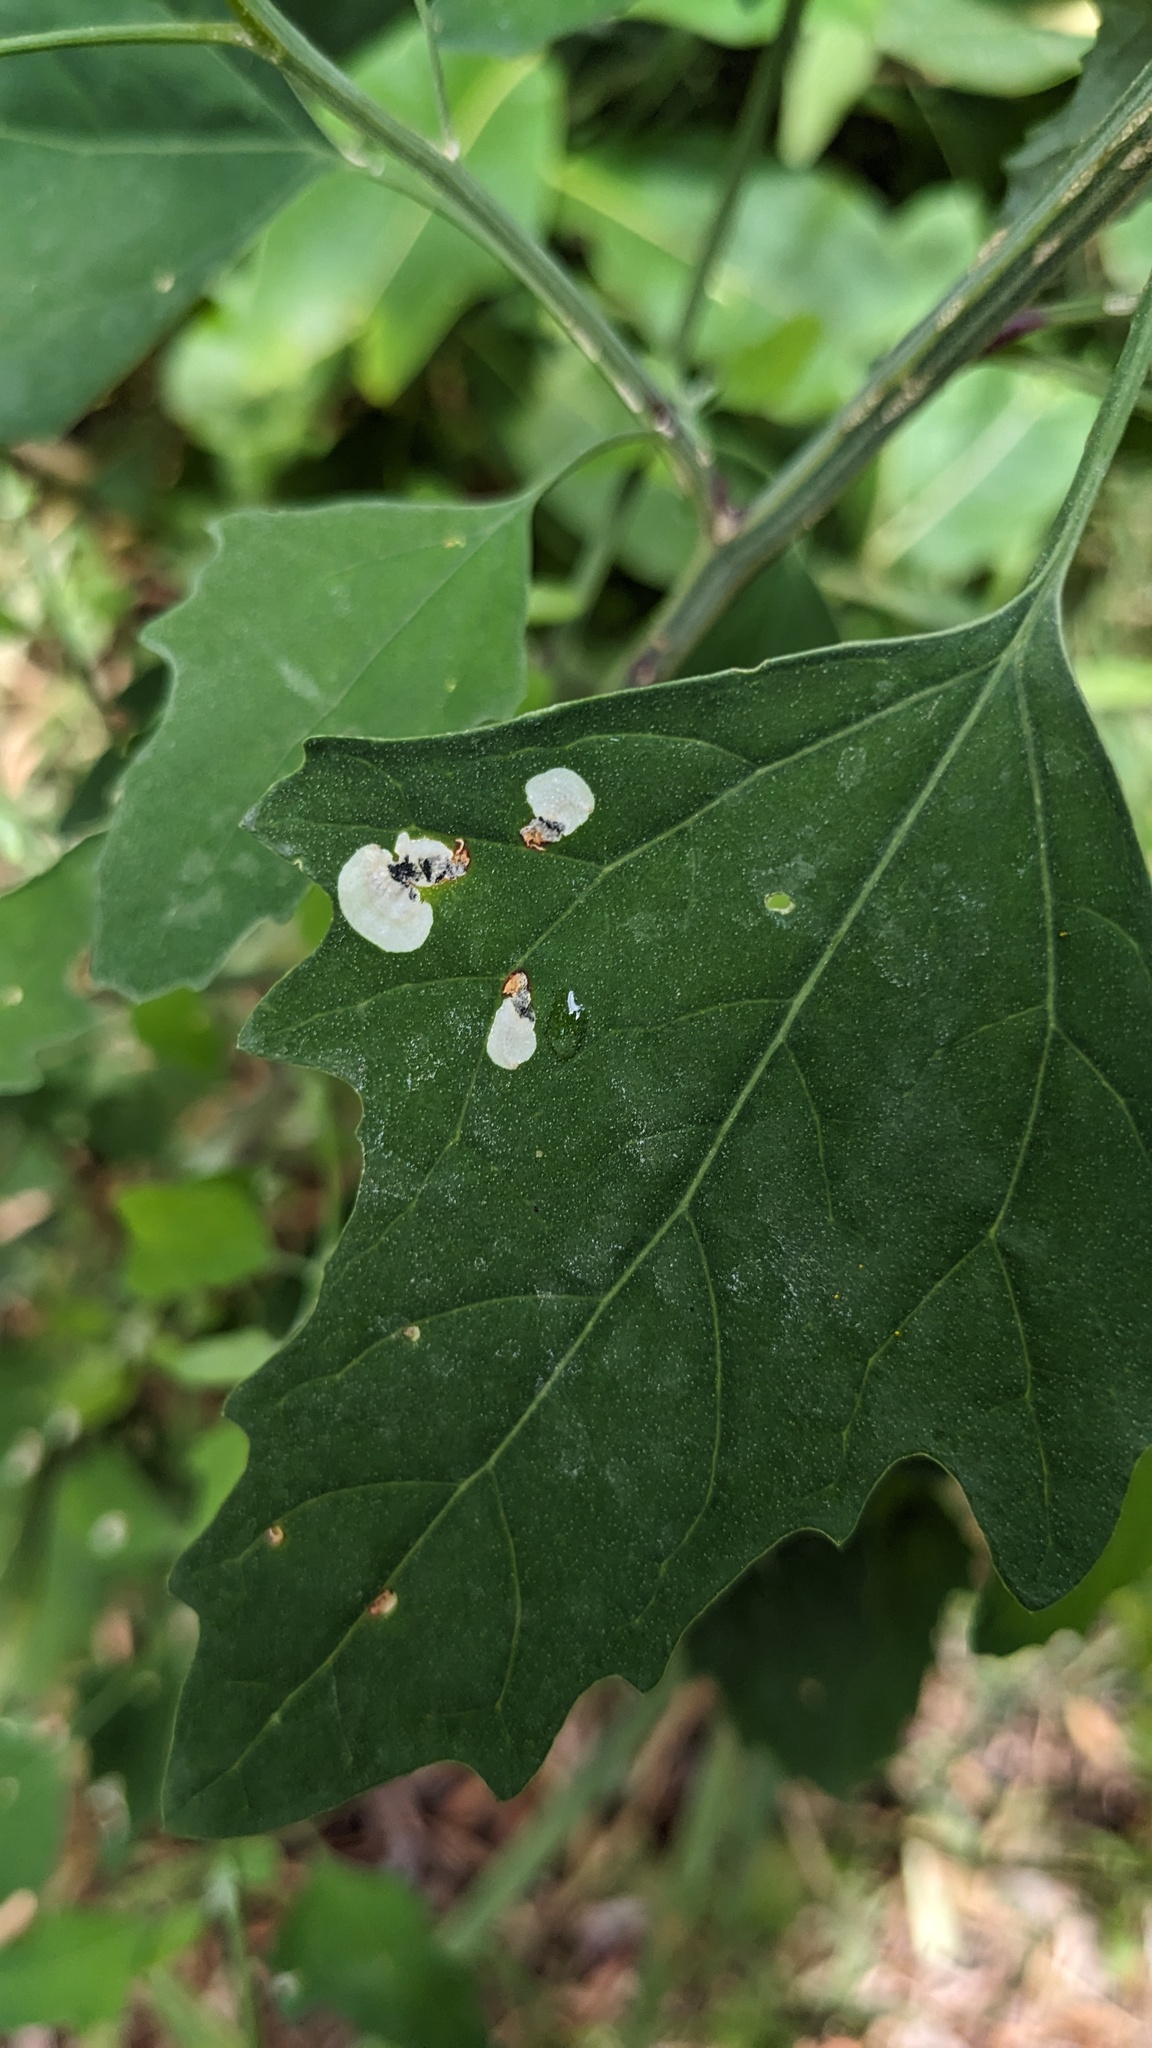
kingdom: Animalia
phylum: Arthropoda
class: Insecta
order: Lepidoptera
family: Gelechiidae
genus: Chrysoesthia
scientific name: Chrysoesthia sexguttella
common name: Moth
